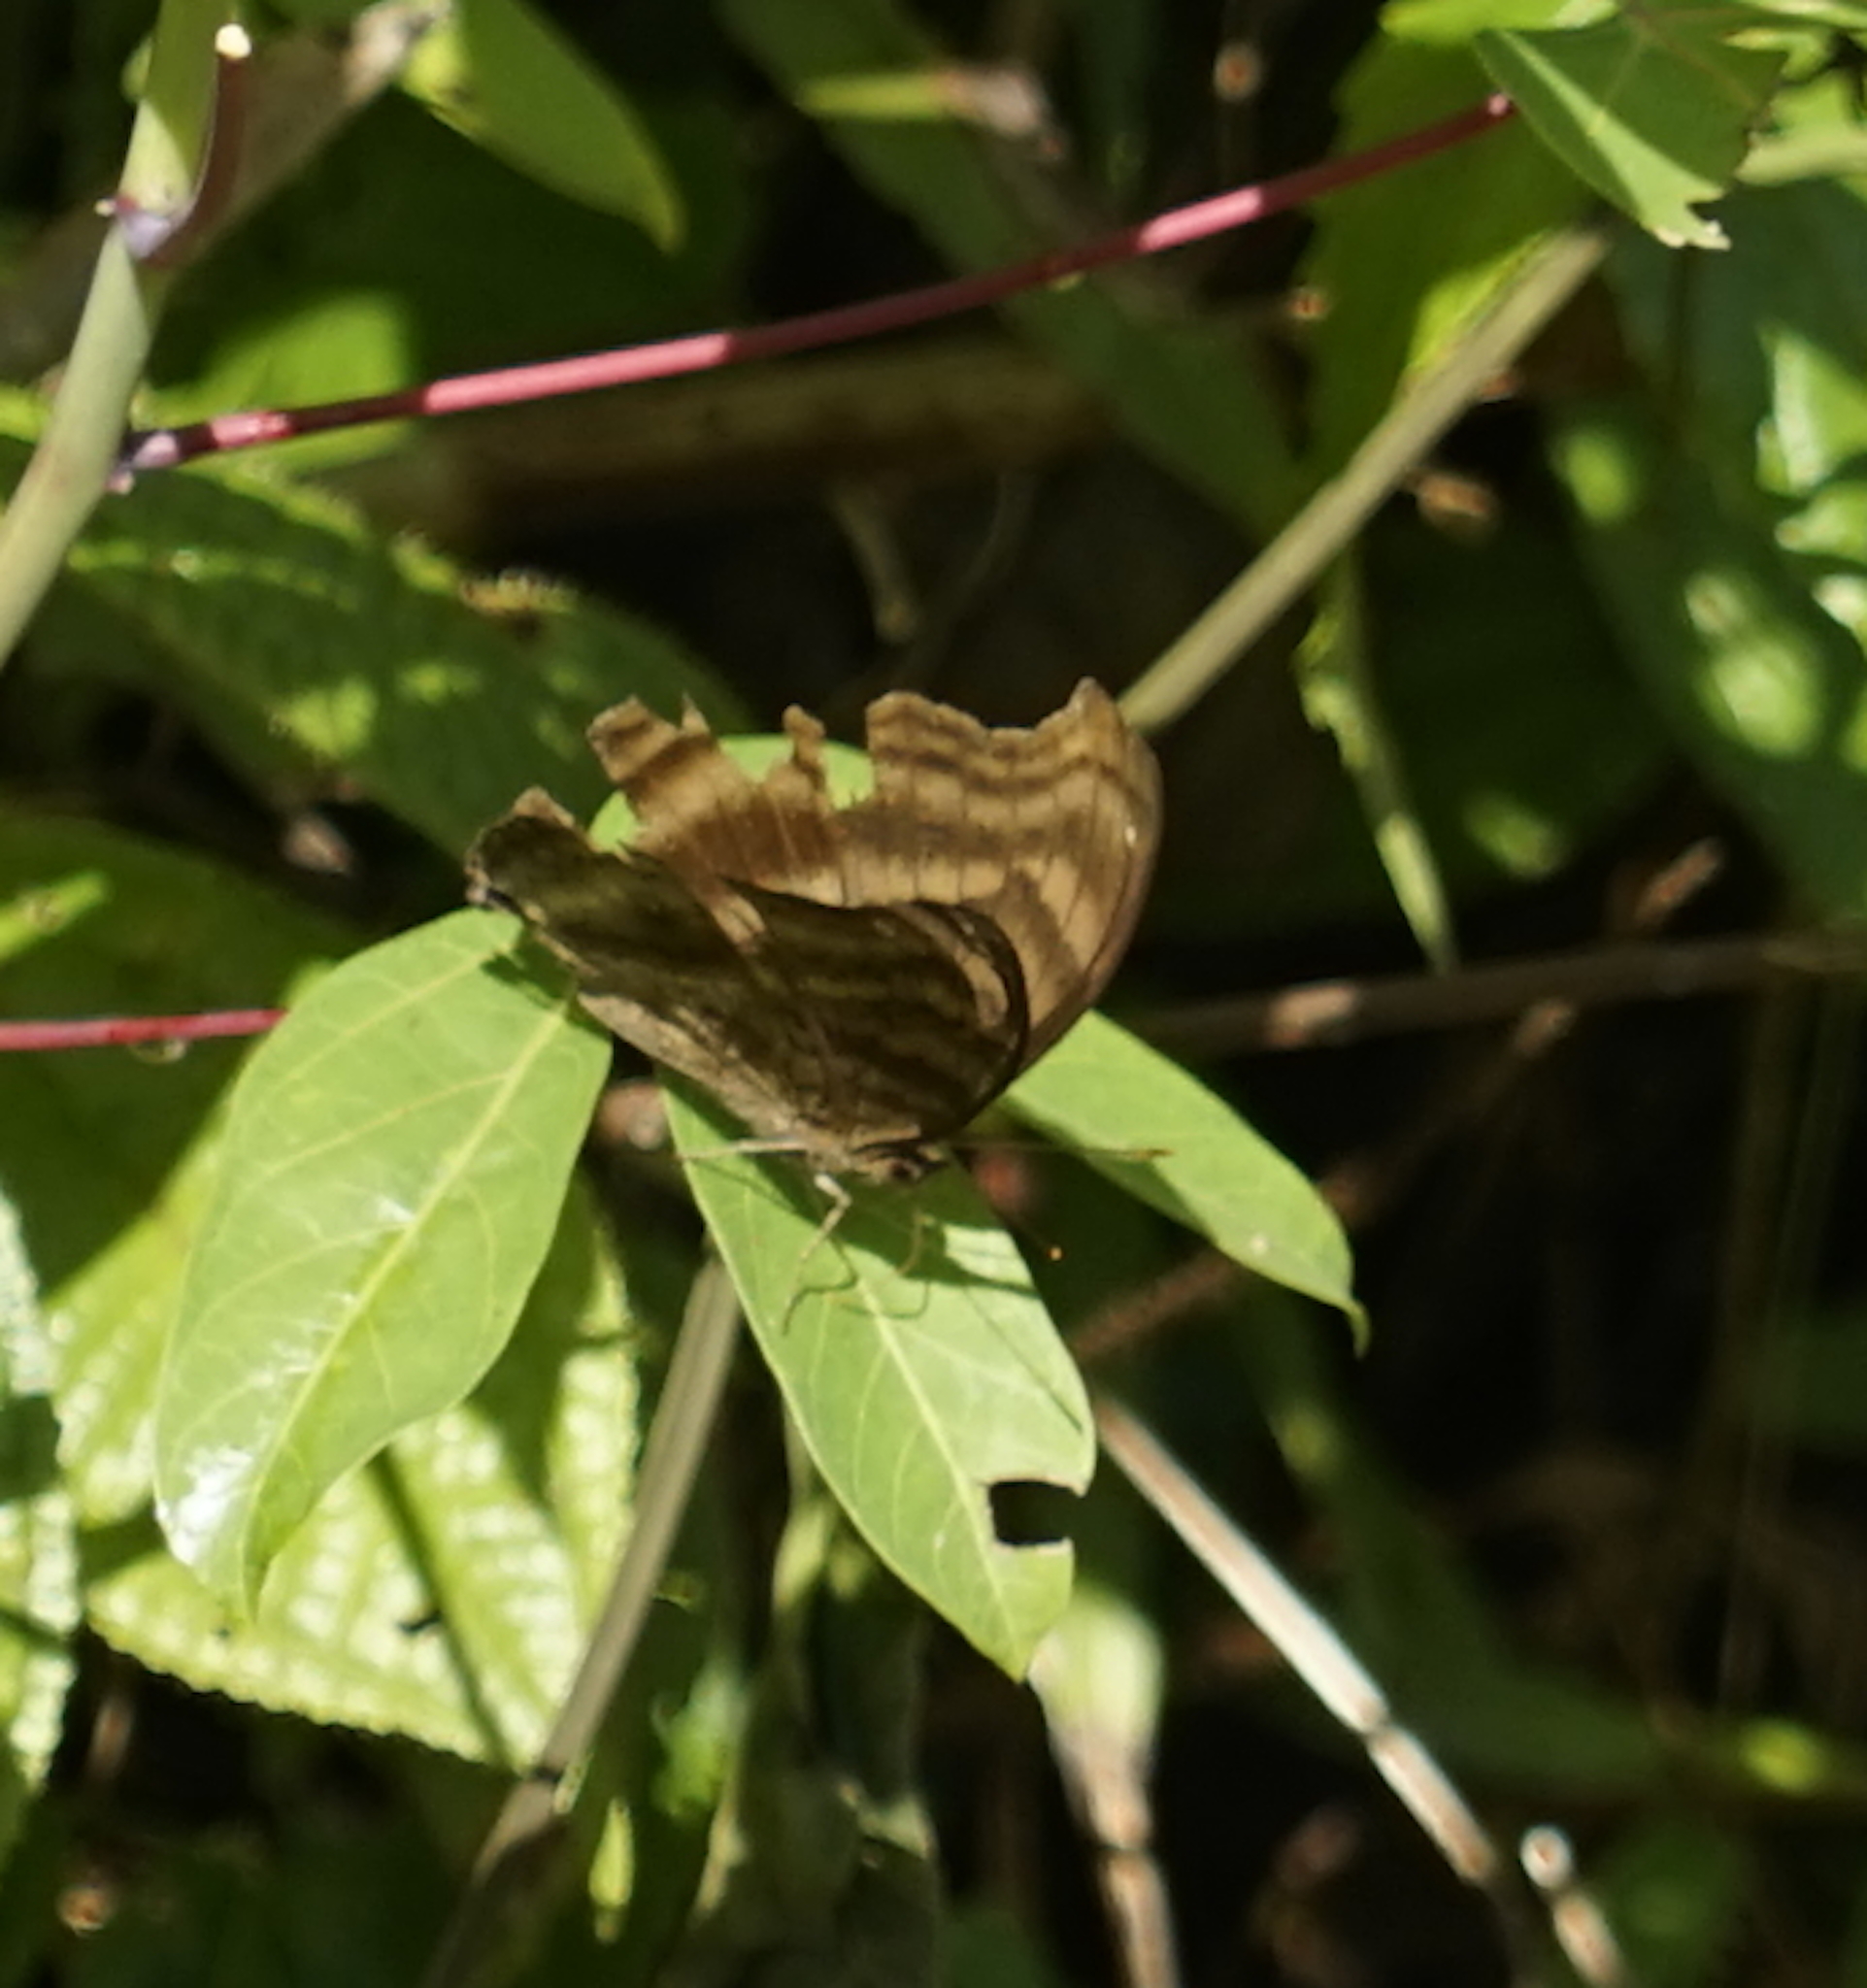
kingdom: Animalia
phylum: Arthropoda
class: Insecta
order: Lepidoptera
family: Nymphalidae
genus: Junonia
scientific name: Junonia iphita
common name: Chocolate pansy
